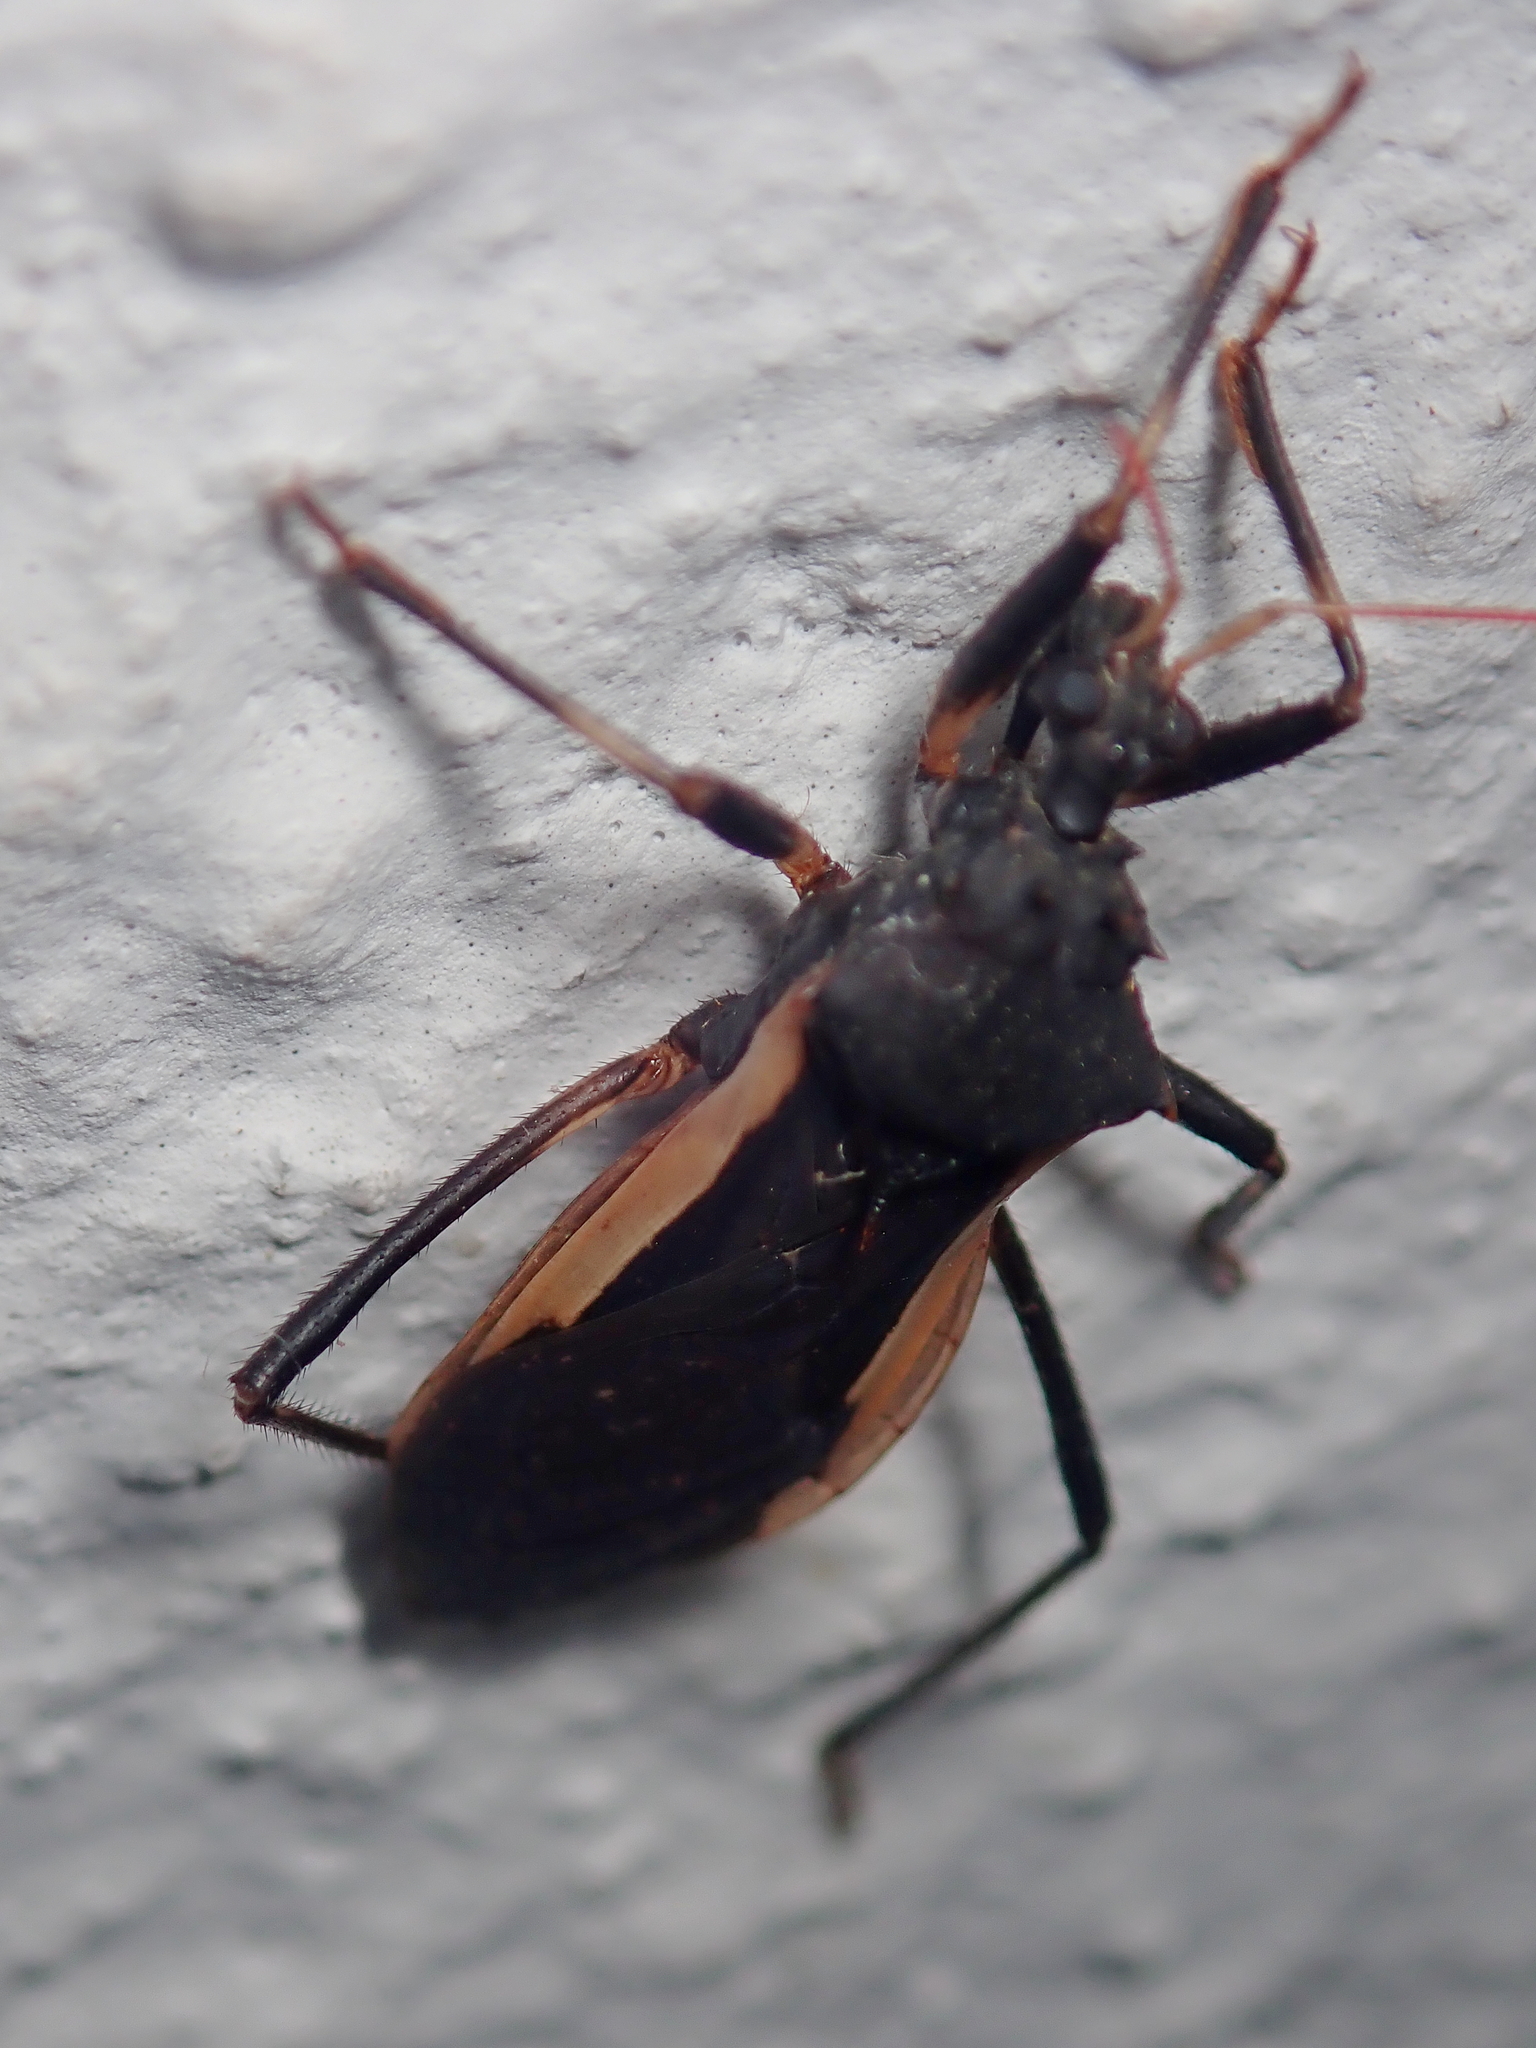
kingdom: Animalia
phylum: Arthropoda
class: Insecta
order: Hemiptera
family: Reduviidae
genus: Zelurus
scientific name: Zelurus albispinus
